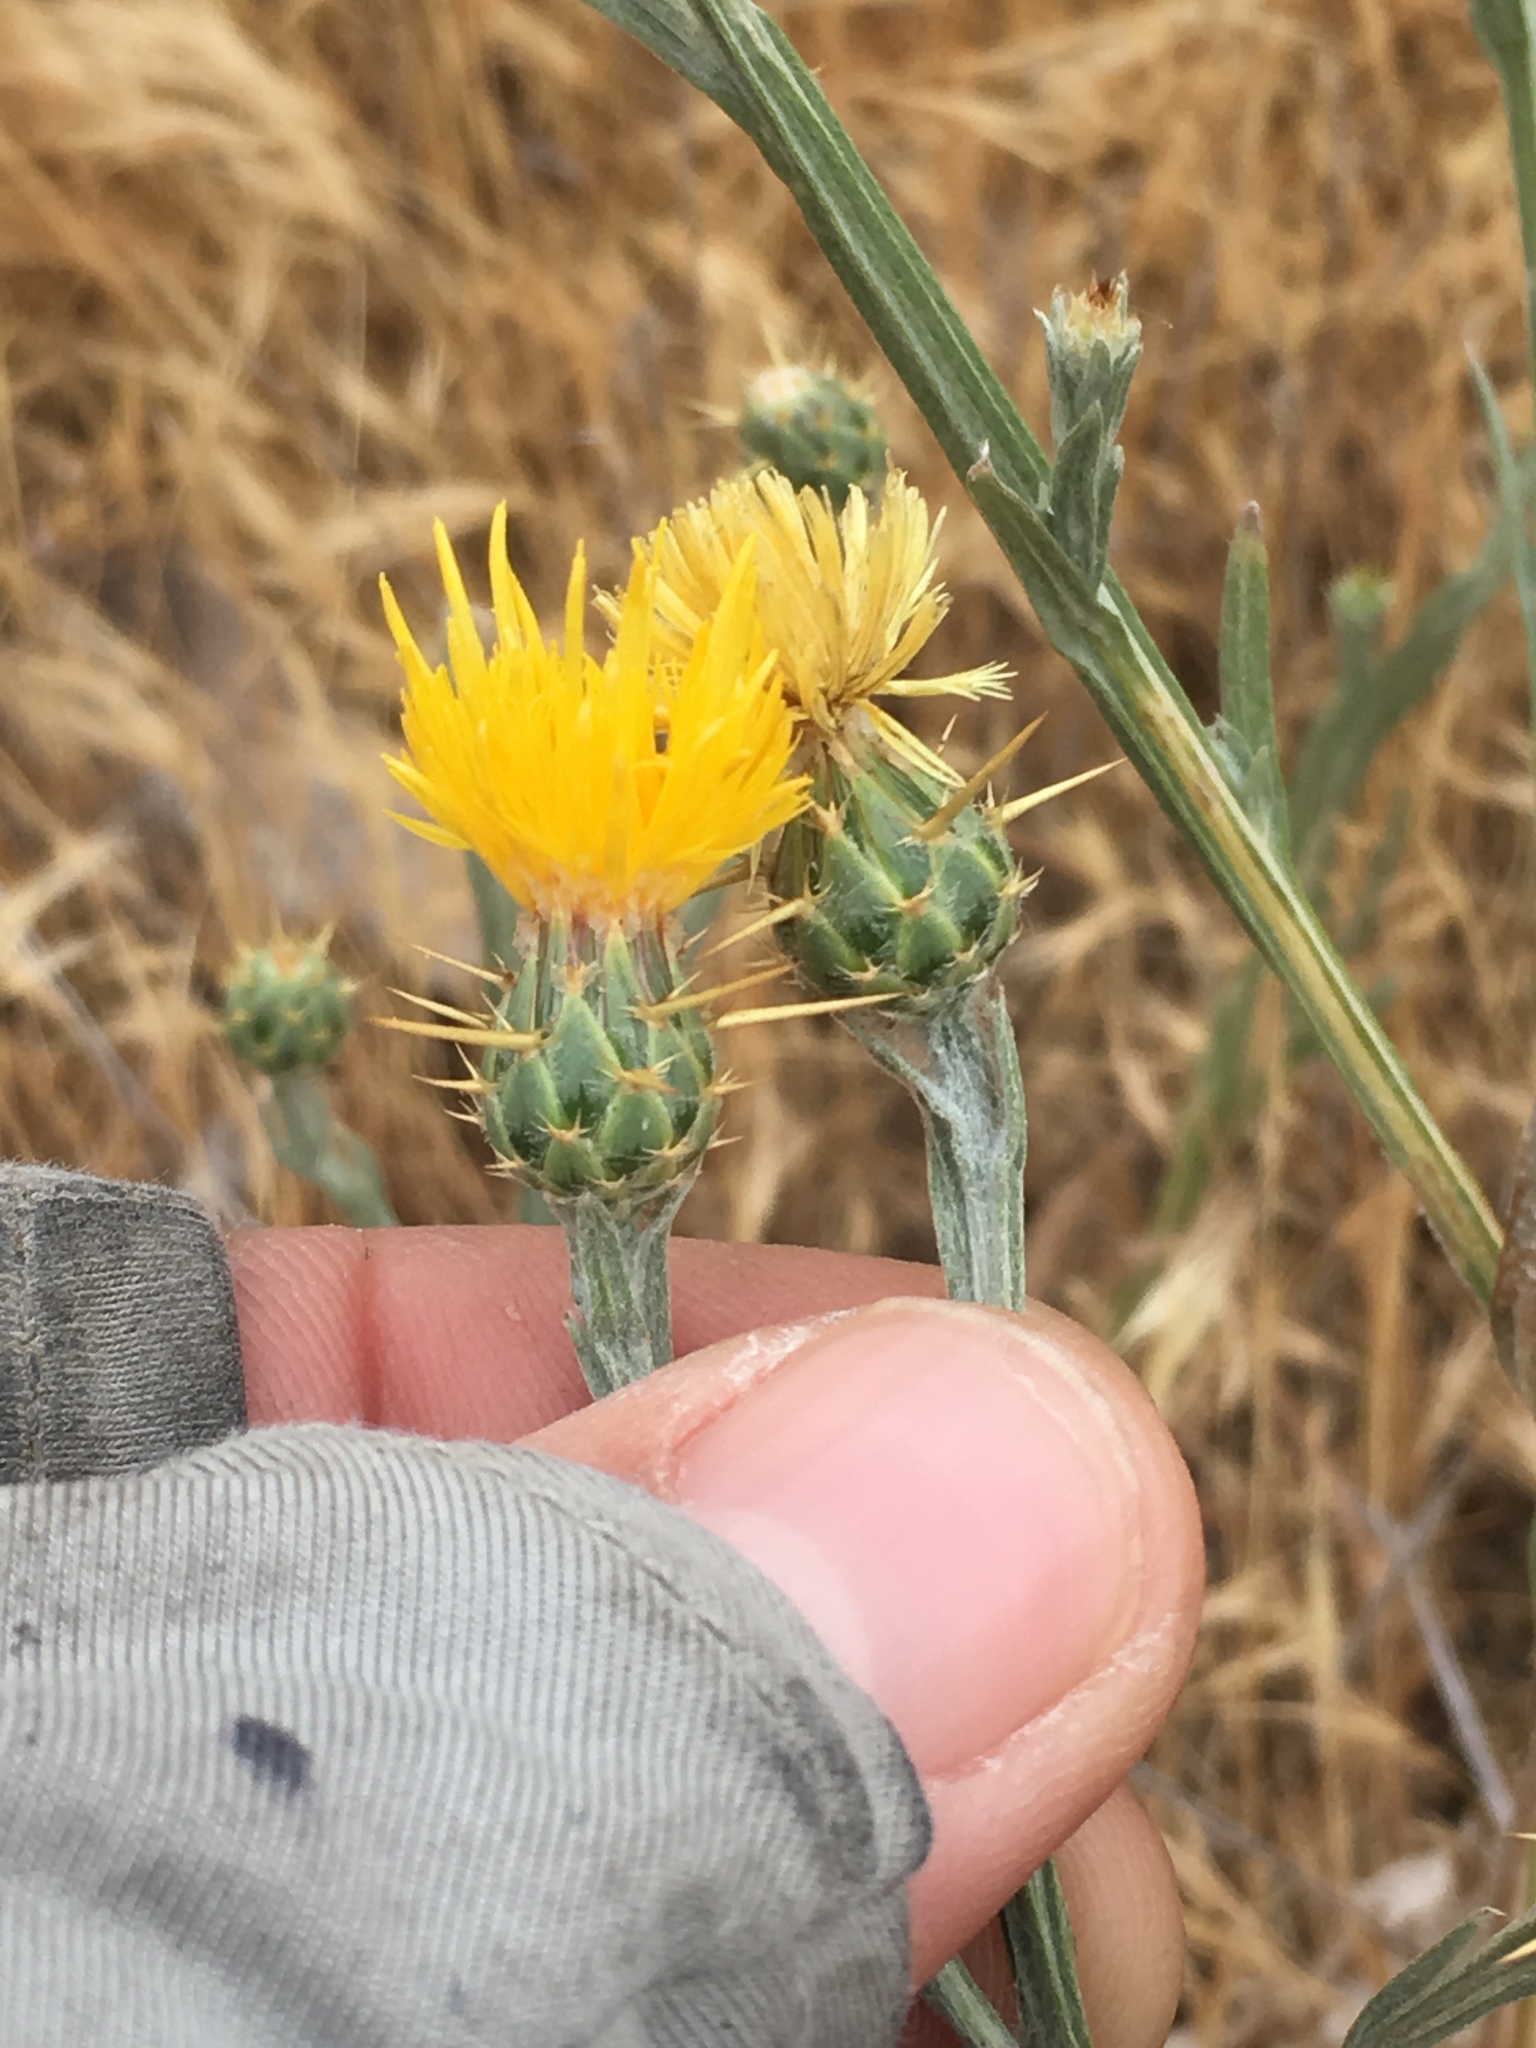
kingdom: Plantae
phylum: Tracheophyta
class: Magnoliopsida
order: Asterales
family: Asteraceae
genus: Centaurea
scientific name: Centaurea solstitialis
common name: Yellow star-thistle
